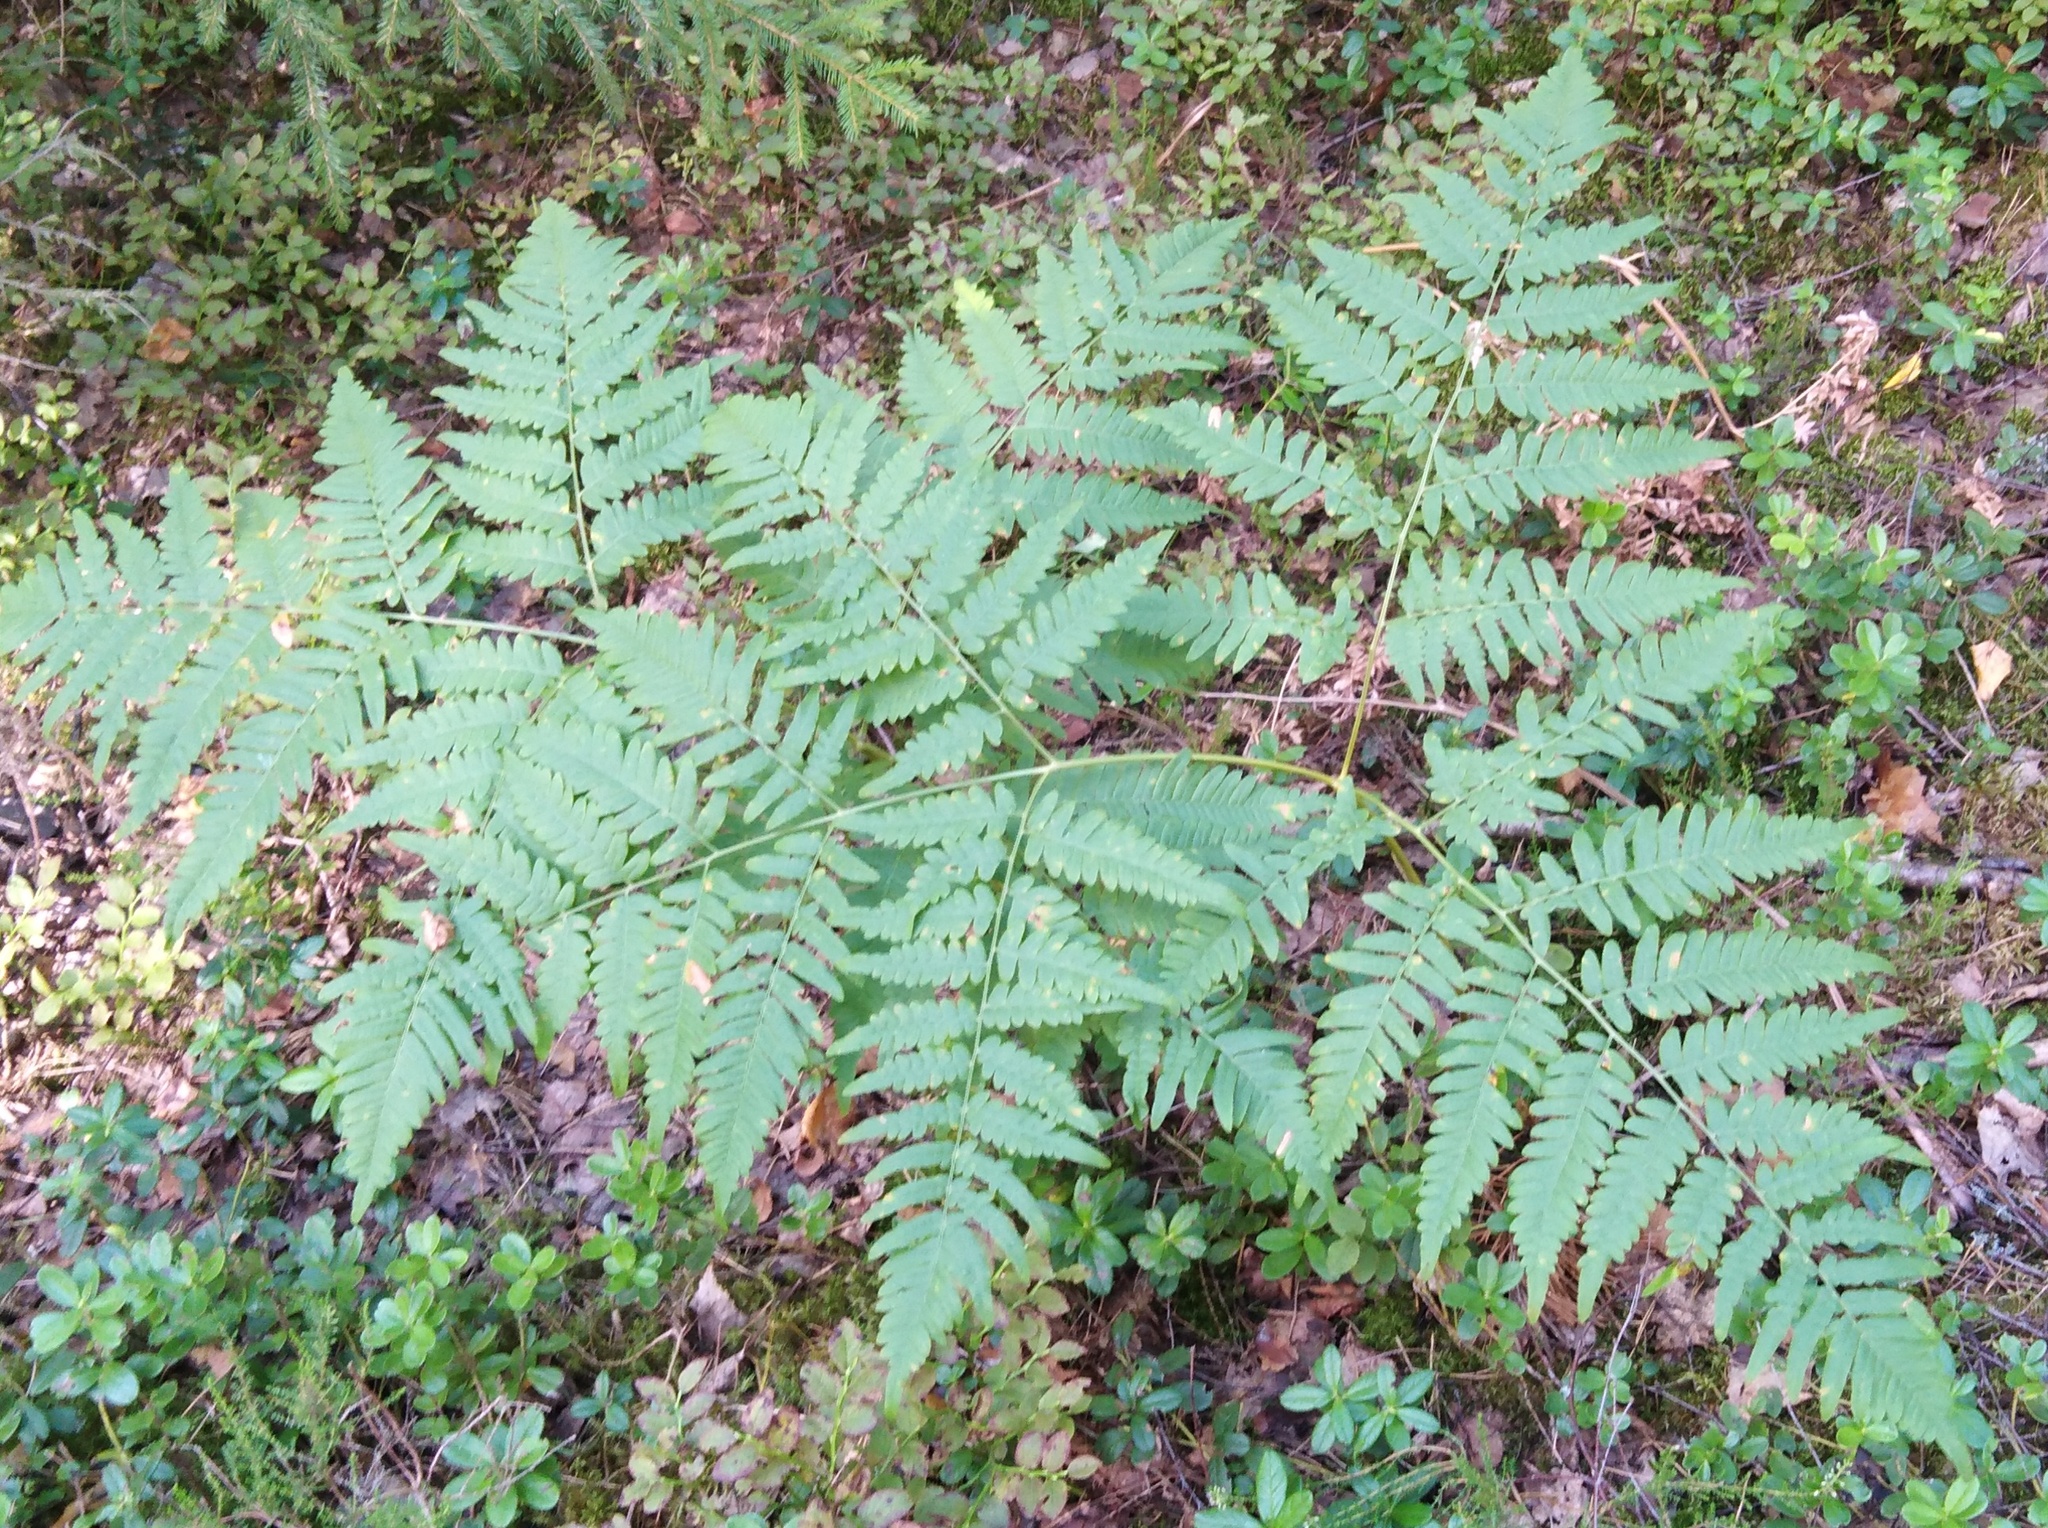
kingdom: Plantae
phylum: Tracheophyta
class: Polypodiopsida
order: Polypodiales
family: Dennstaedtiaceae
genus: Pteridium
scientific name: Pteridium aquilinum
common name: Bracken
